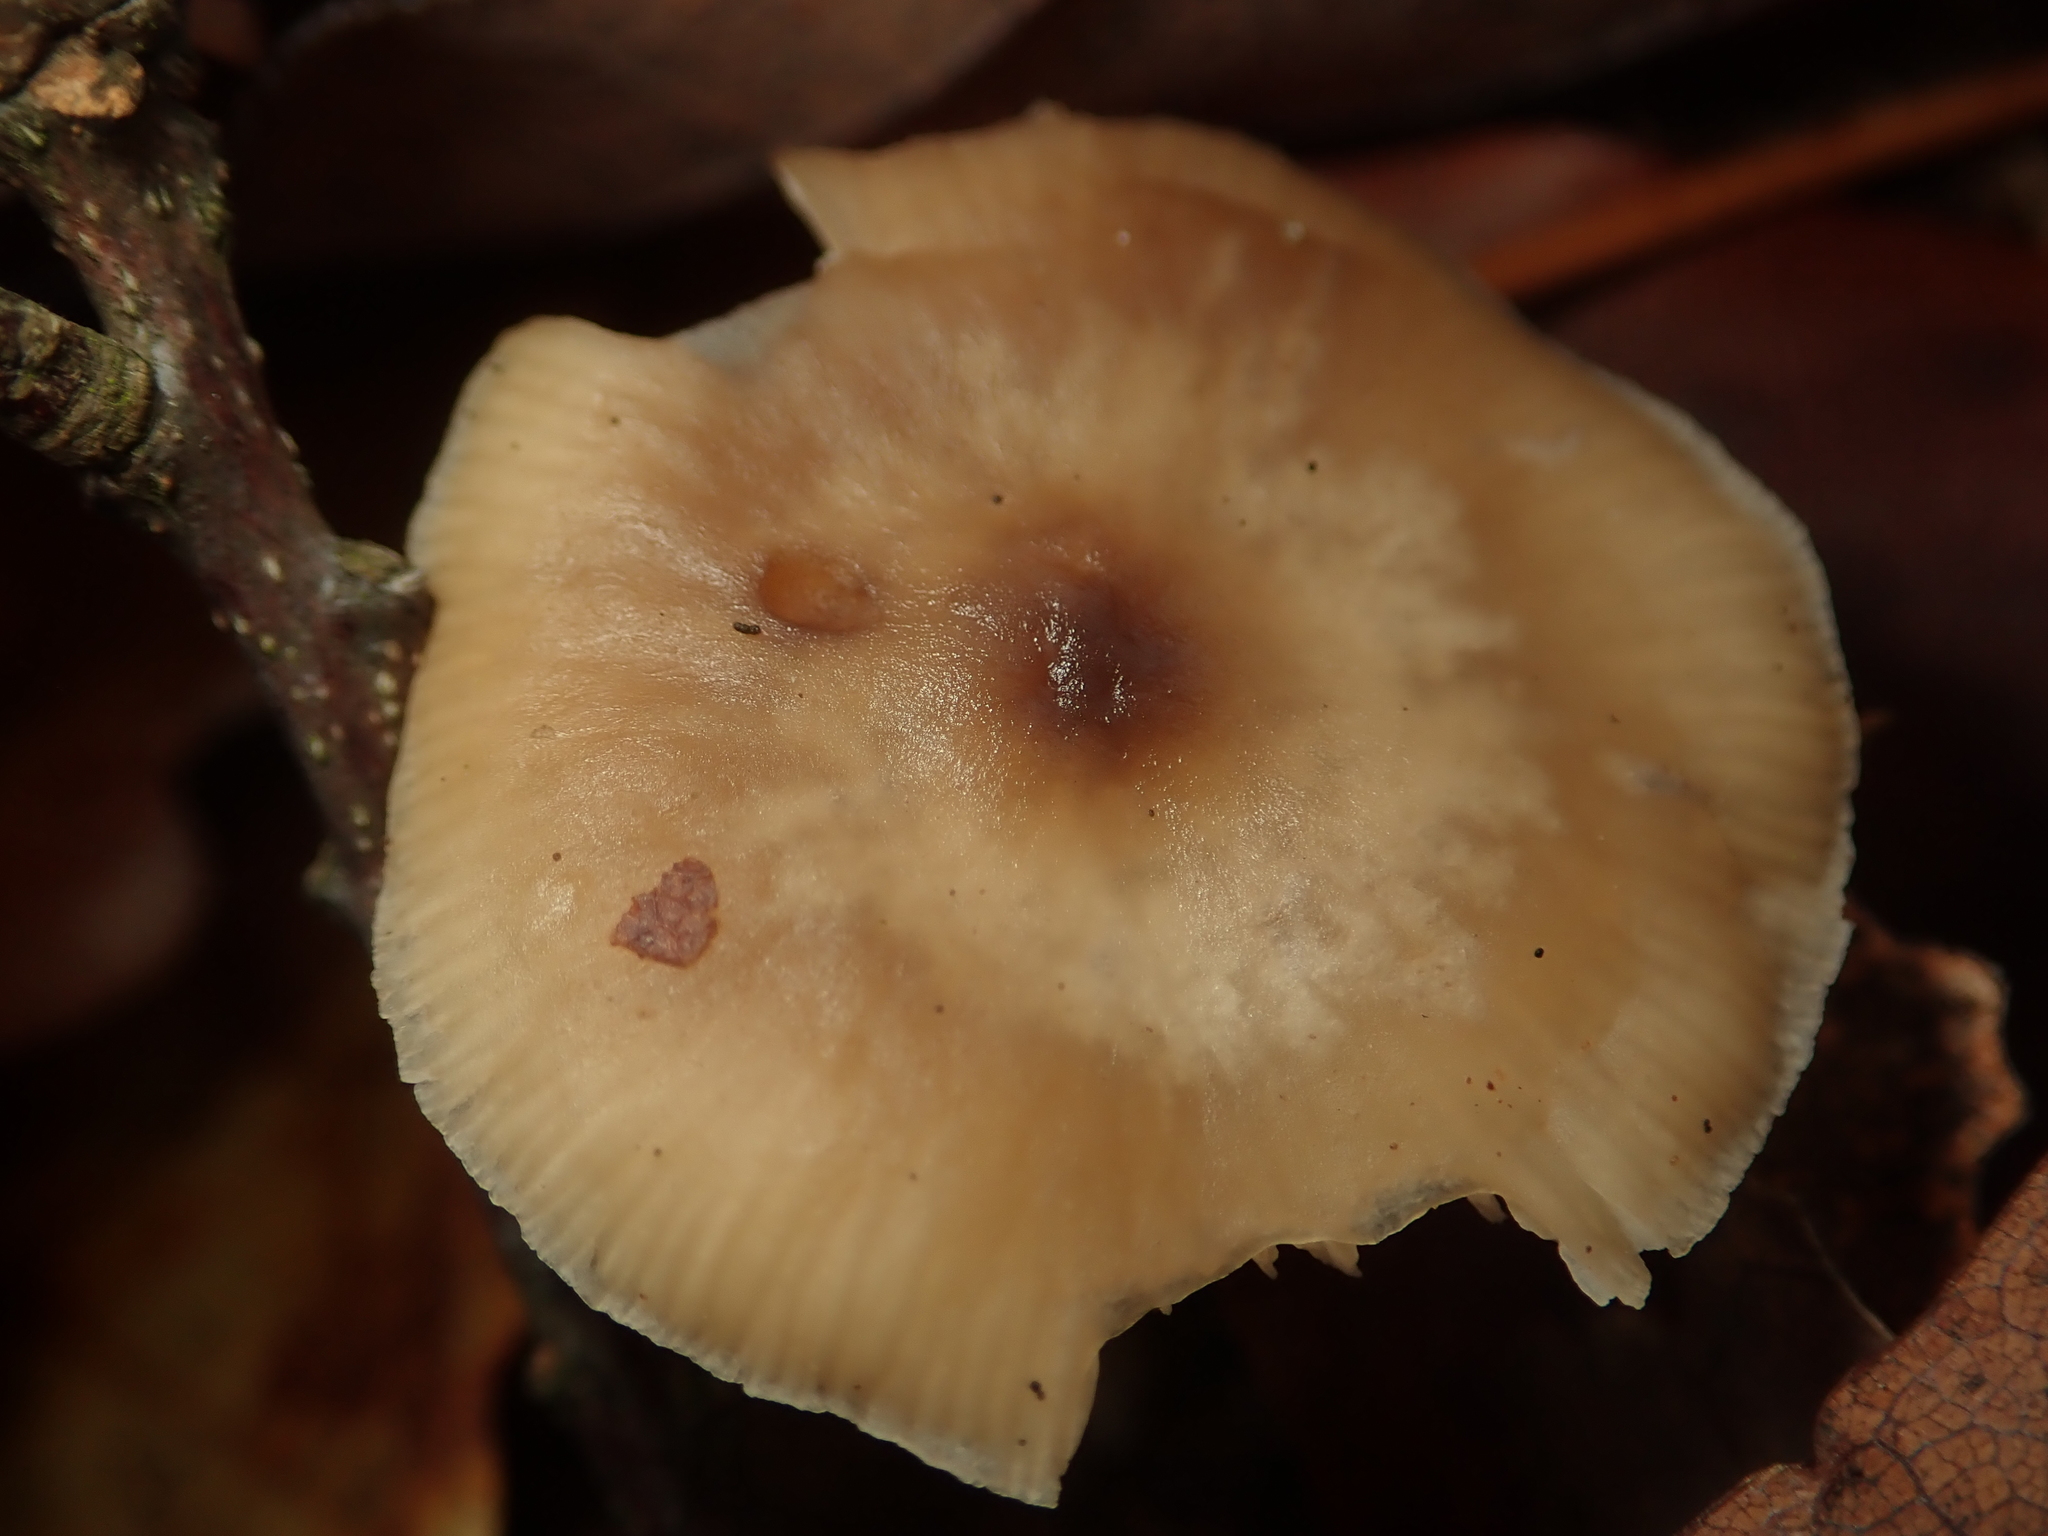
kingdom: Fungi
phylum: Basidiomycota
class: Agaricomycetes
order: Agaricales
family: Omphalotaceae
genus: Rhodocollybia
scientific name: Rhodocollybia butyracea
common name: Butter cap
